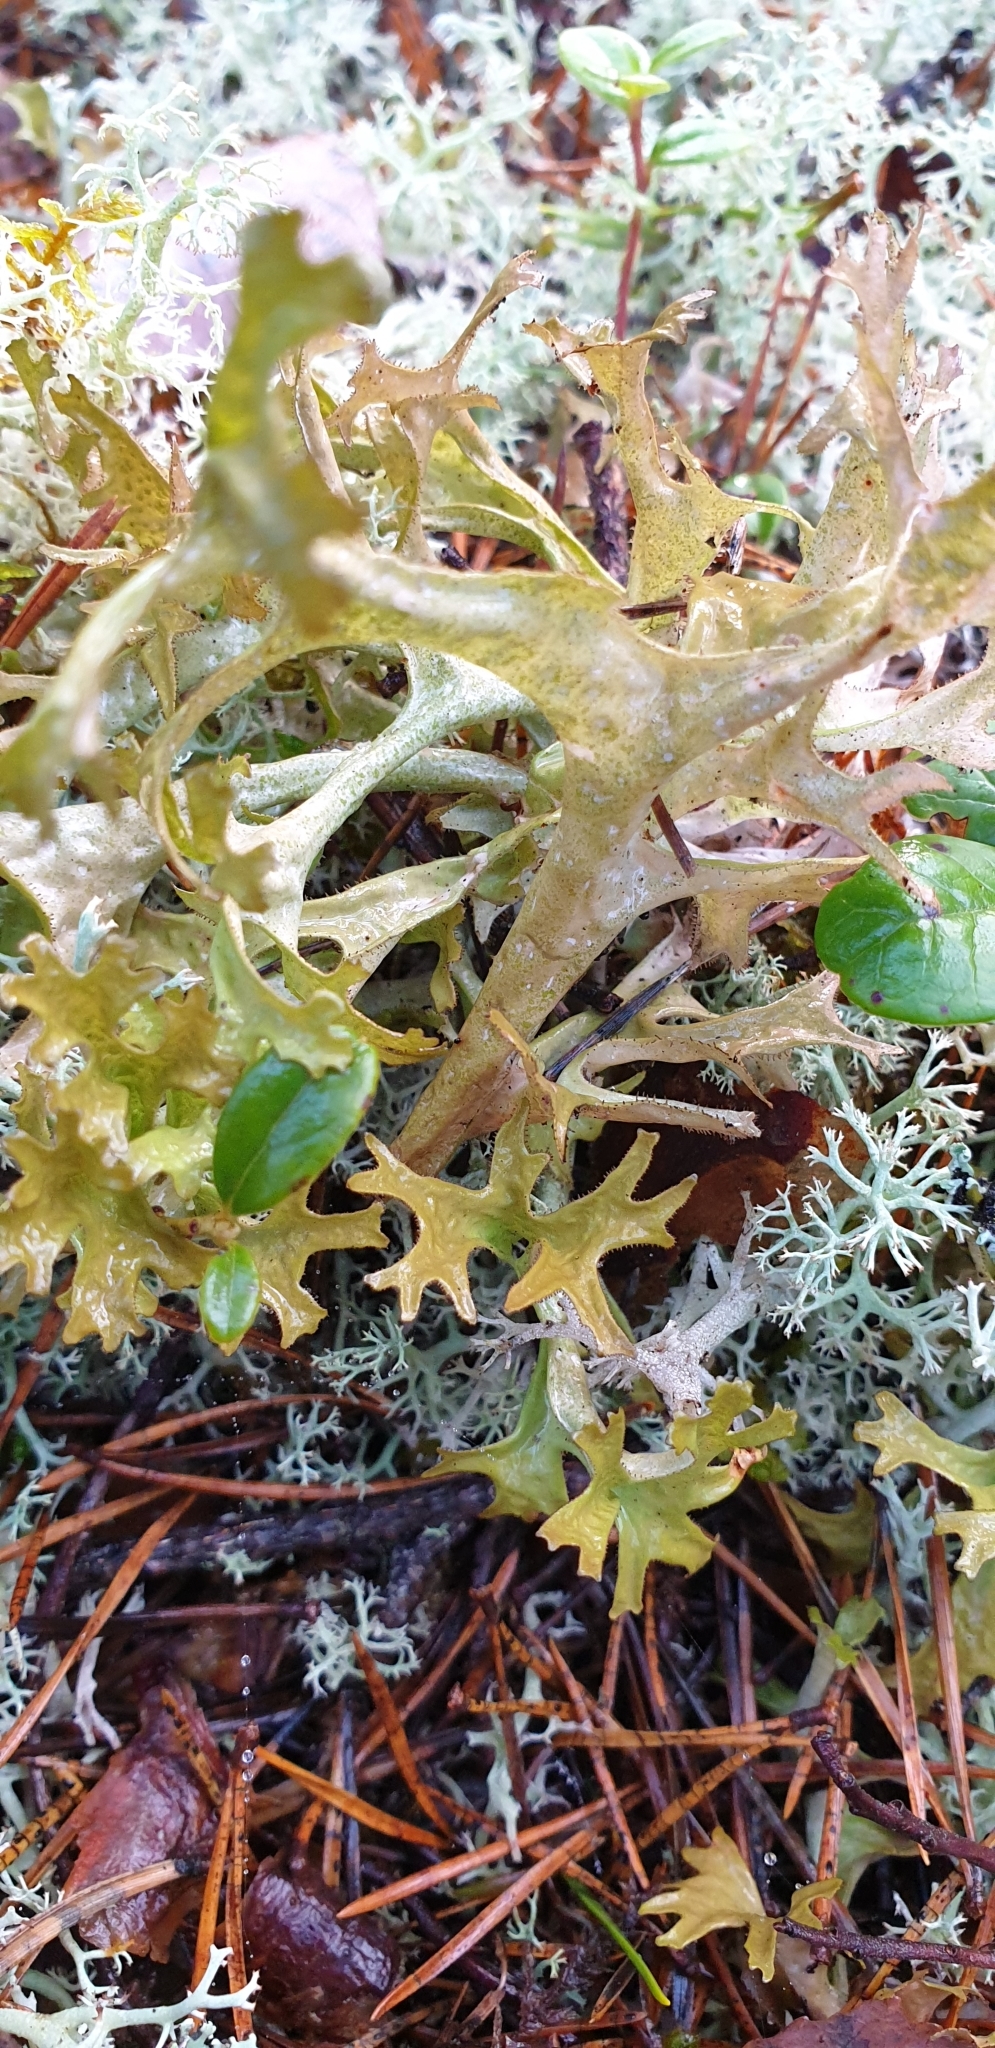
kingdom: Fungi
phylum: Ascomycota
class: Lecanoromycetes
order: Lecanorales
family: Parmeliaceae
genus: Cetraria
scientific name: Cetraria islandica
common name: Iceland lichen
